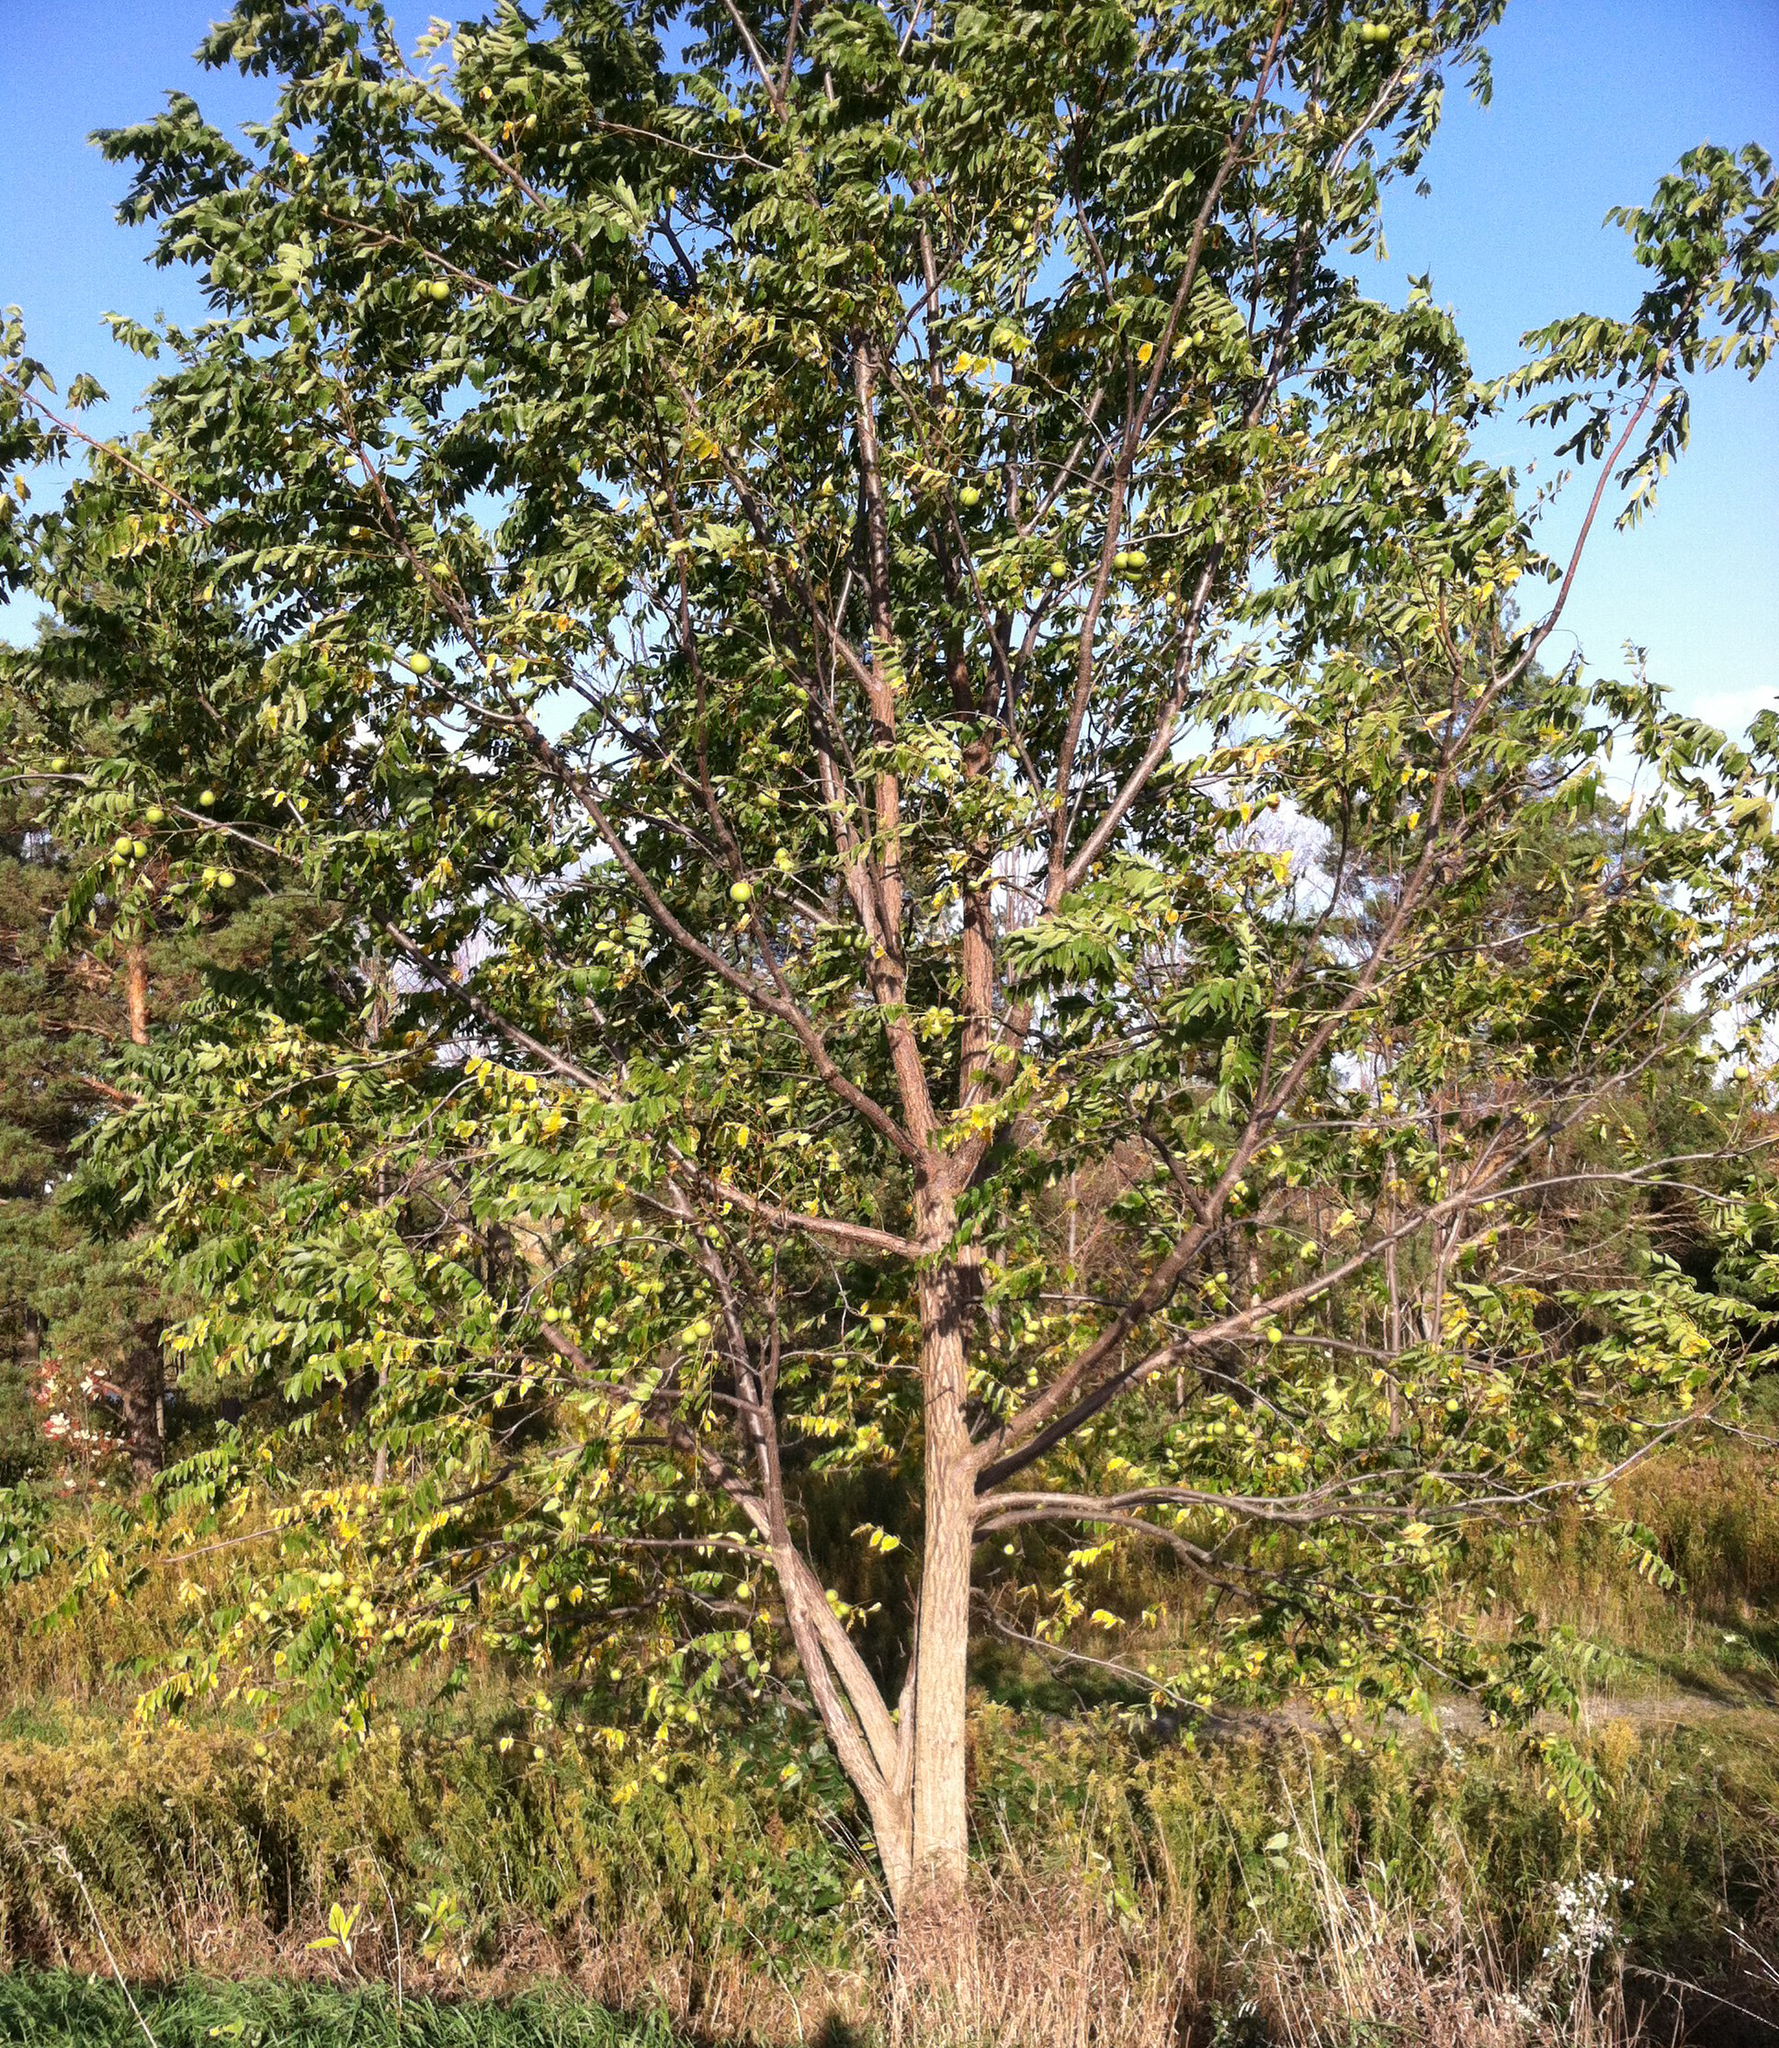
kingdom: Plantae
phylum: Tracheophyta
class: Magnoliopsida
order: Fagales
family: Juglandaceae
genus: Juglans
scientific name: Juglans nigra
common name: Black walnut
